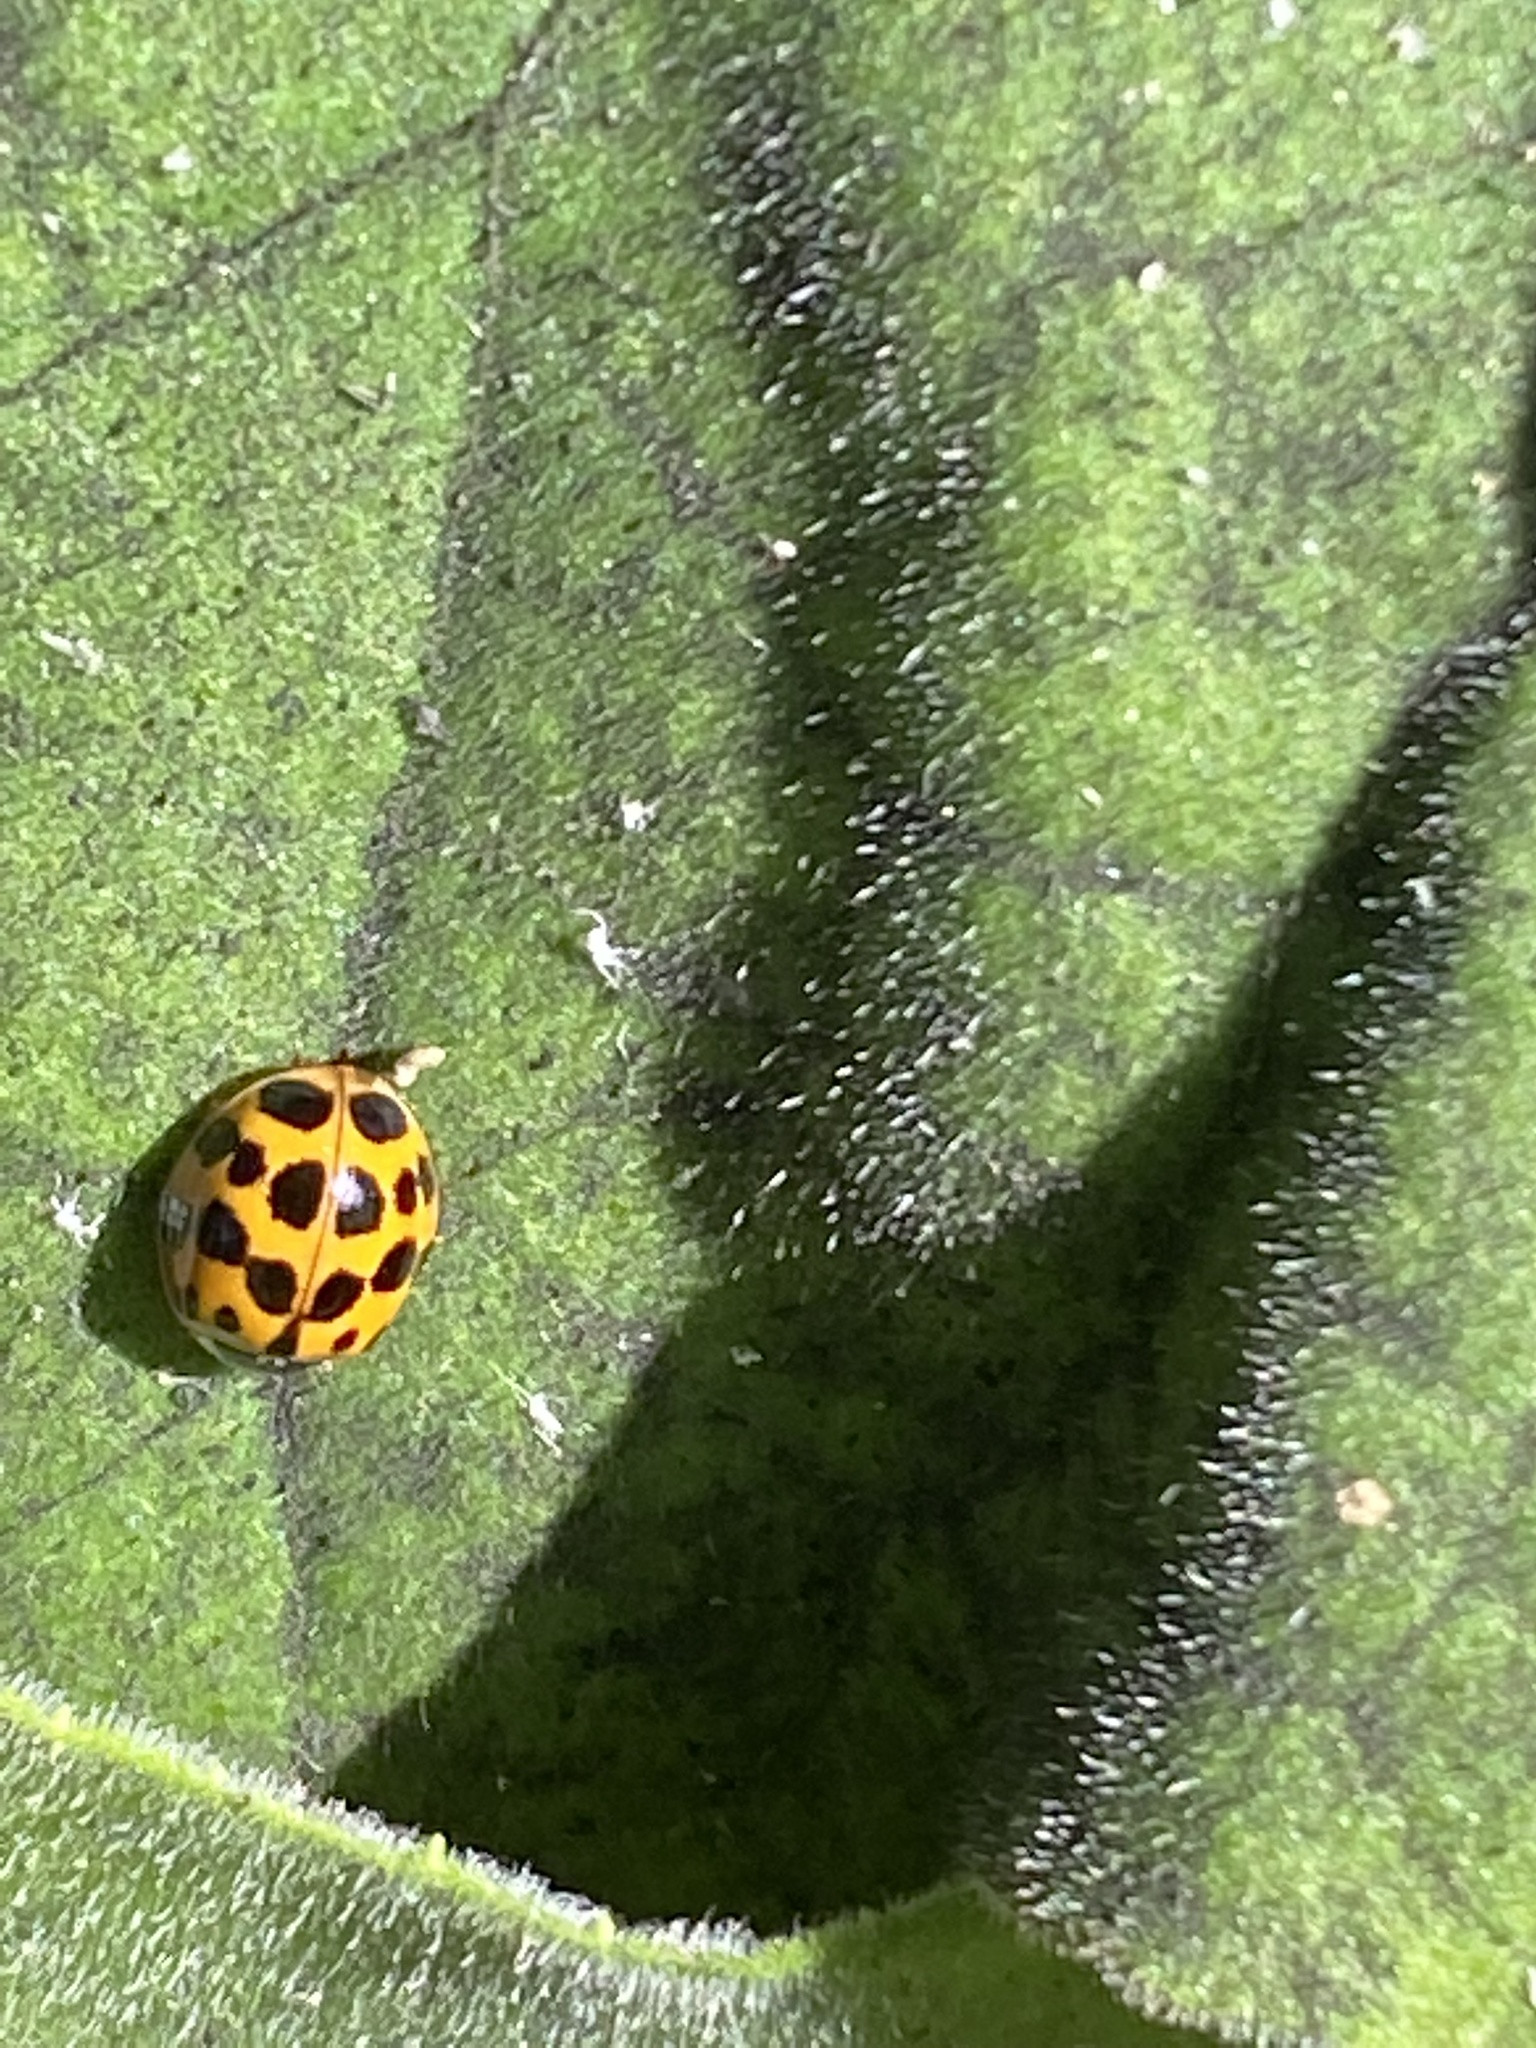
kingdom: Animalia
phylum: Arthropoda
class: Insecta
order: Coleoptera
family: Coccinellidae
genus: Harmonia
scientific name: Harmonia axyridis
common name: Harlequin ladybird
